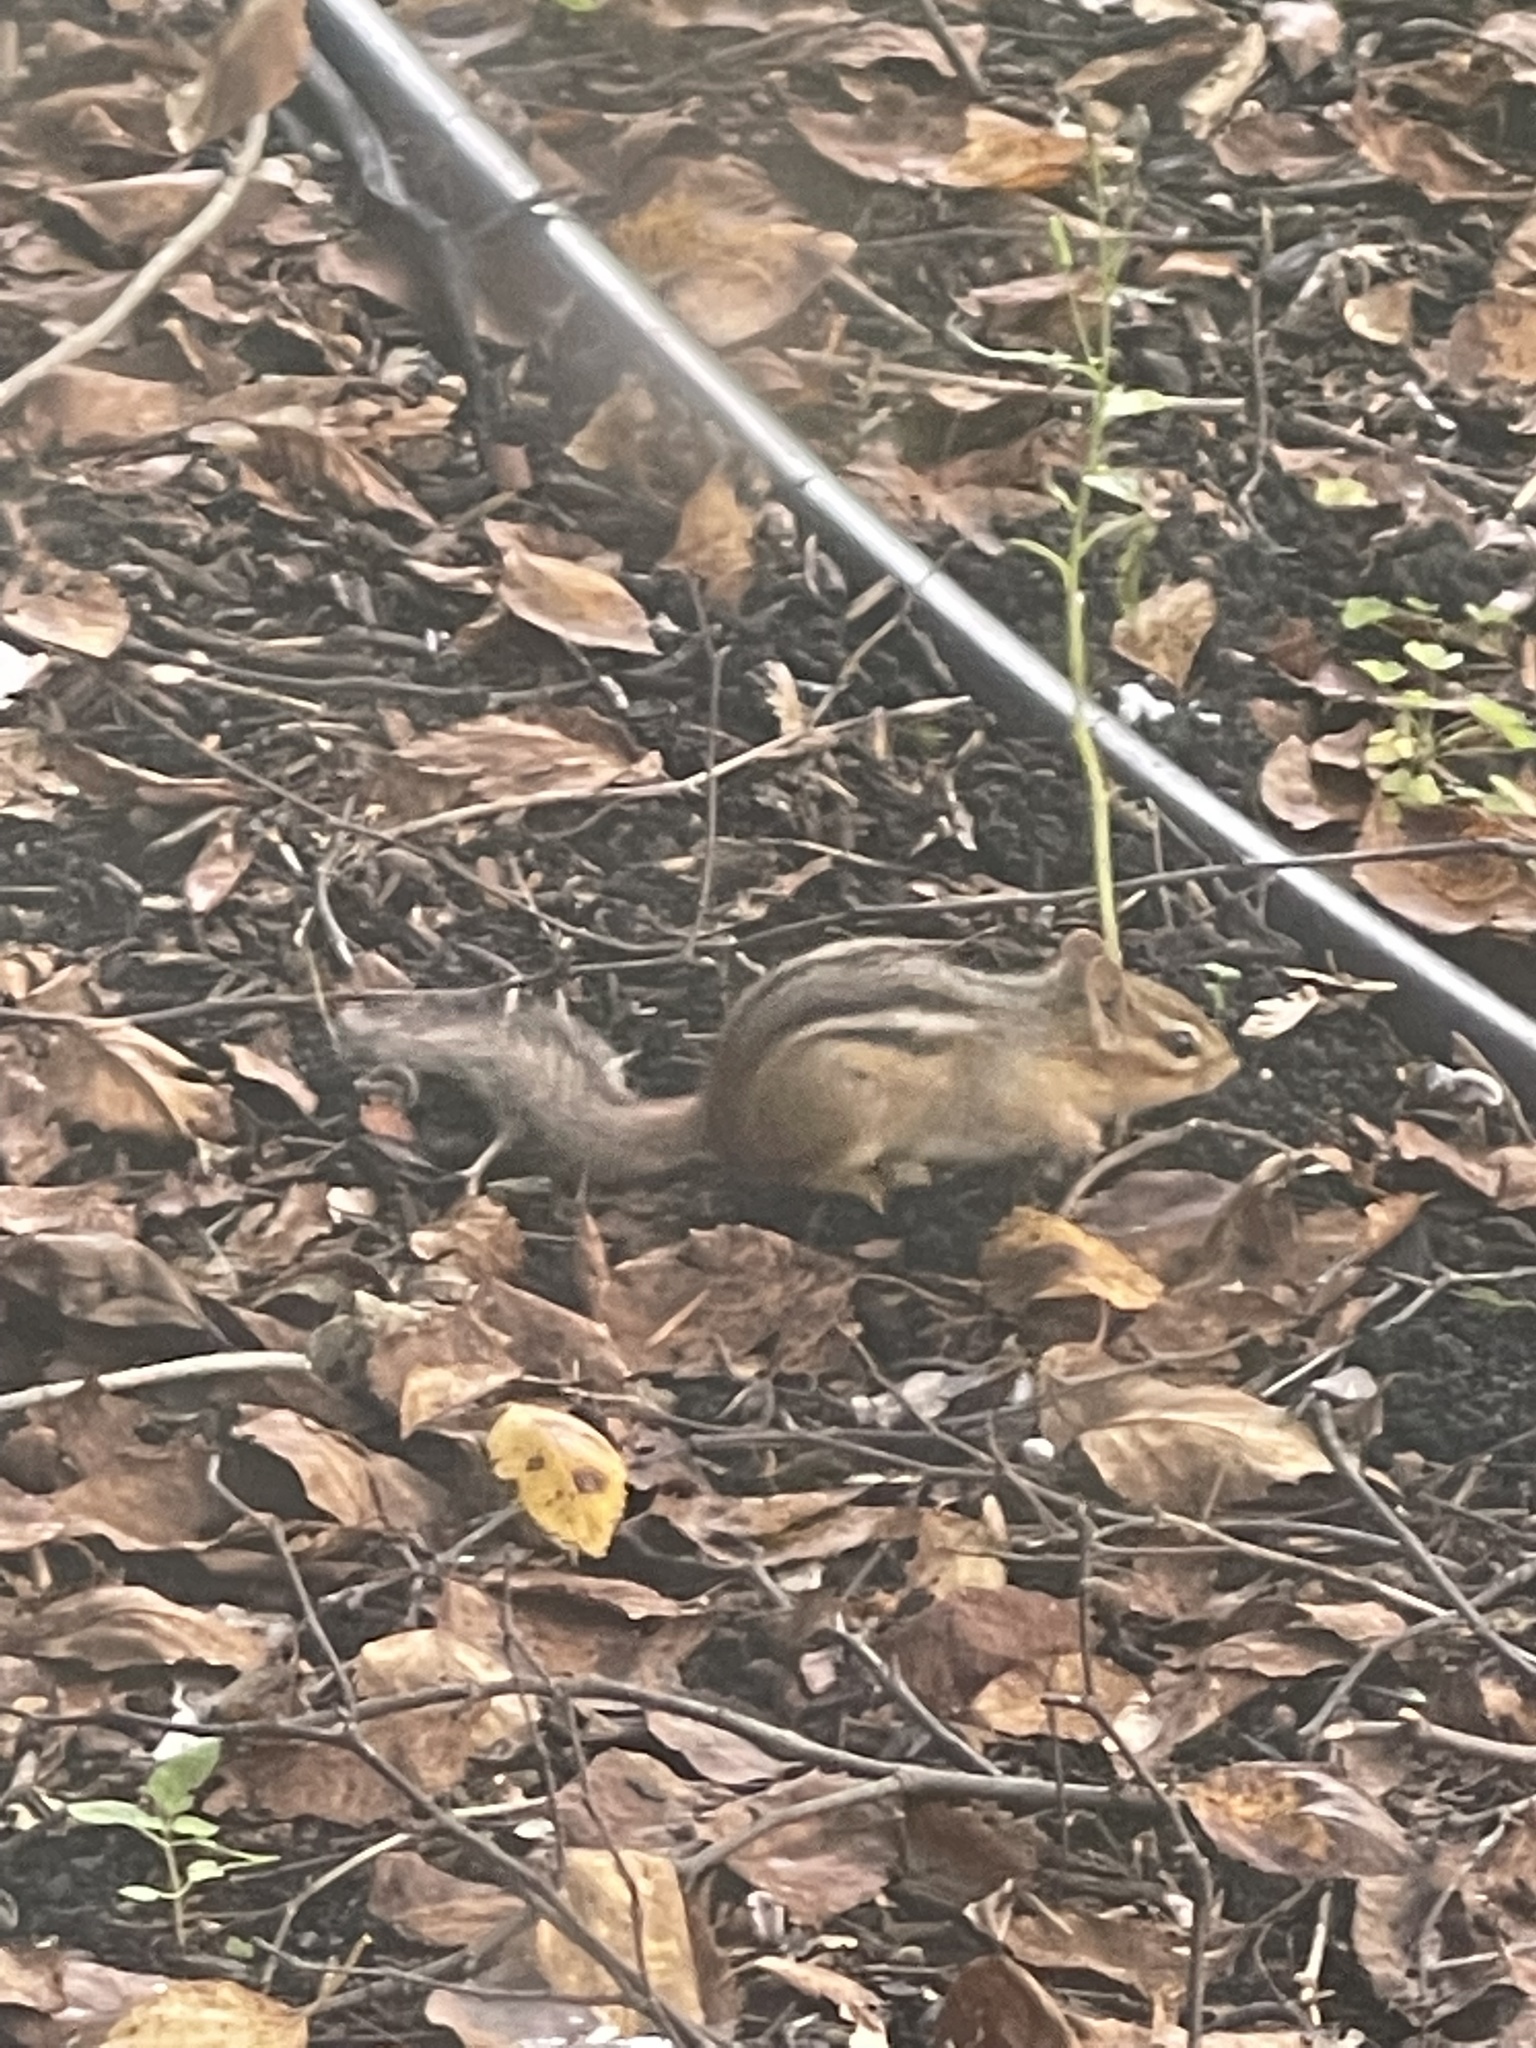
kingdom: Animalia
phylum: Chordata
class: Mammalia
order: Rodentia
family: Sciuridae
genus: Tamias
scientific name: Tamias striatus
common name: Eastern chipmunk
